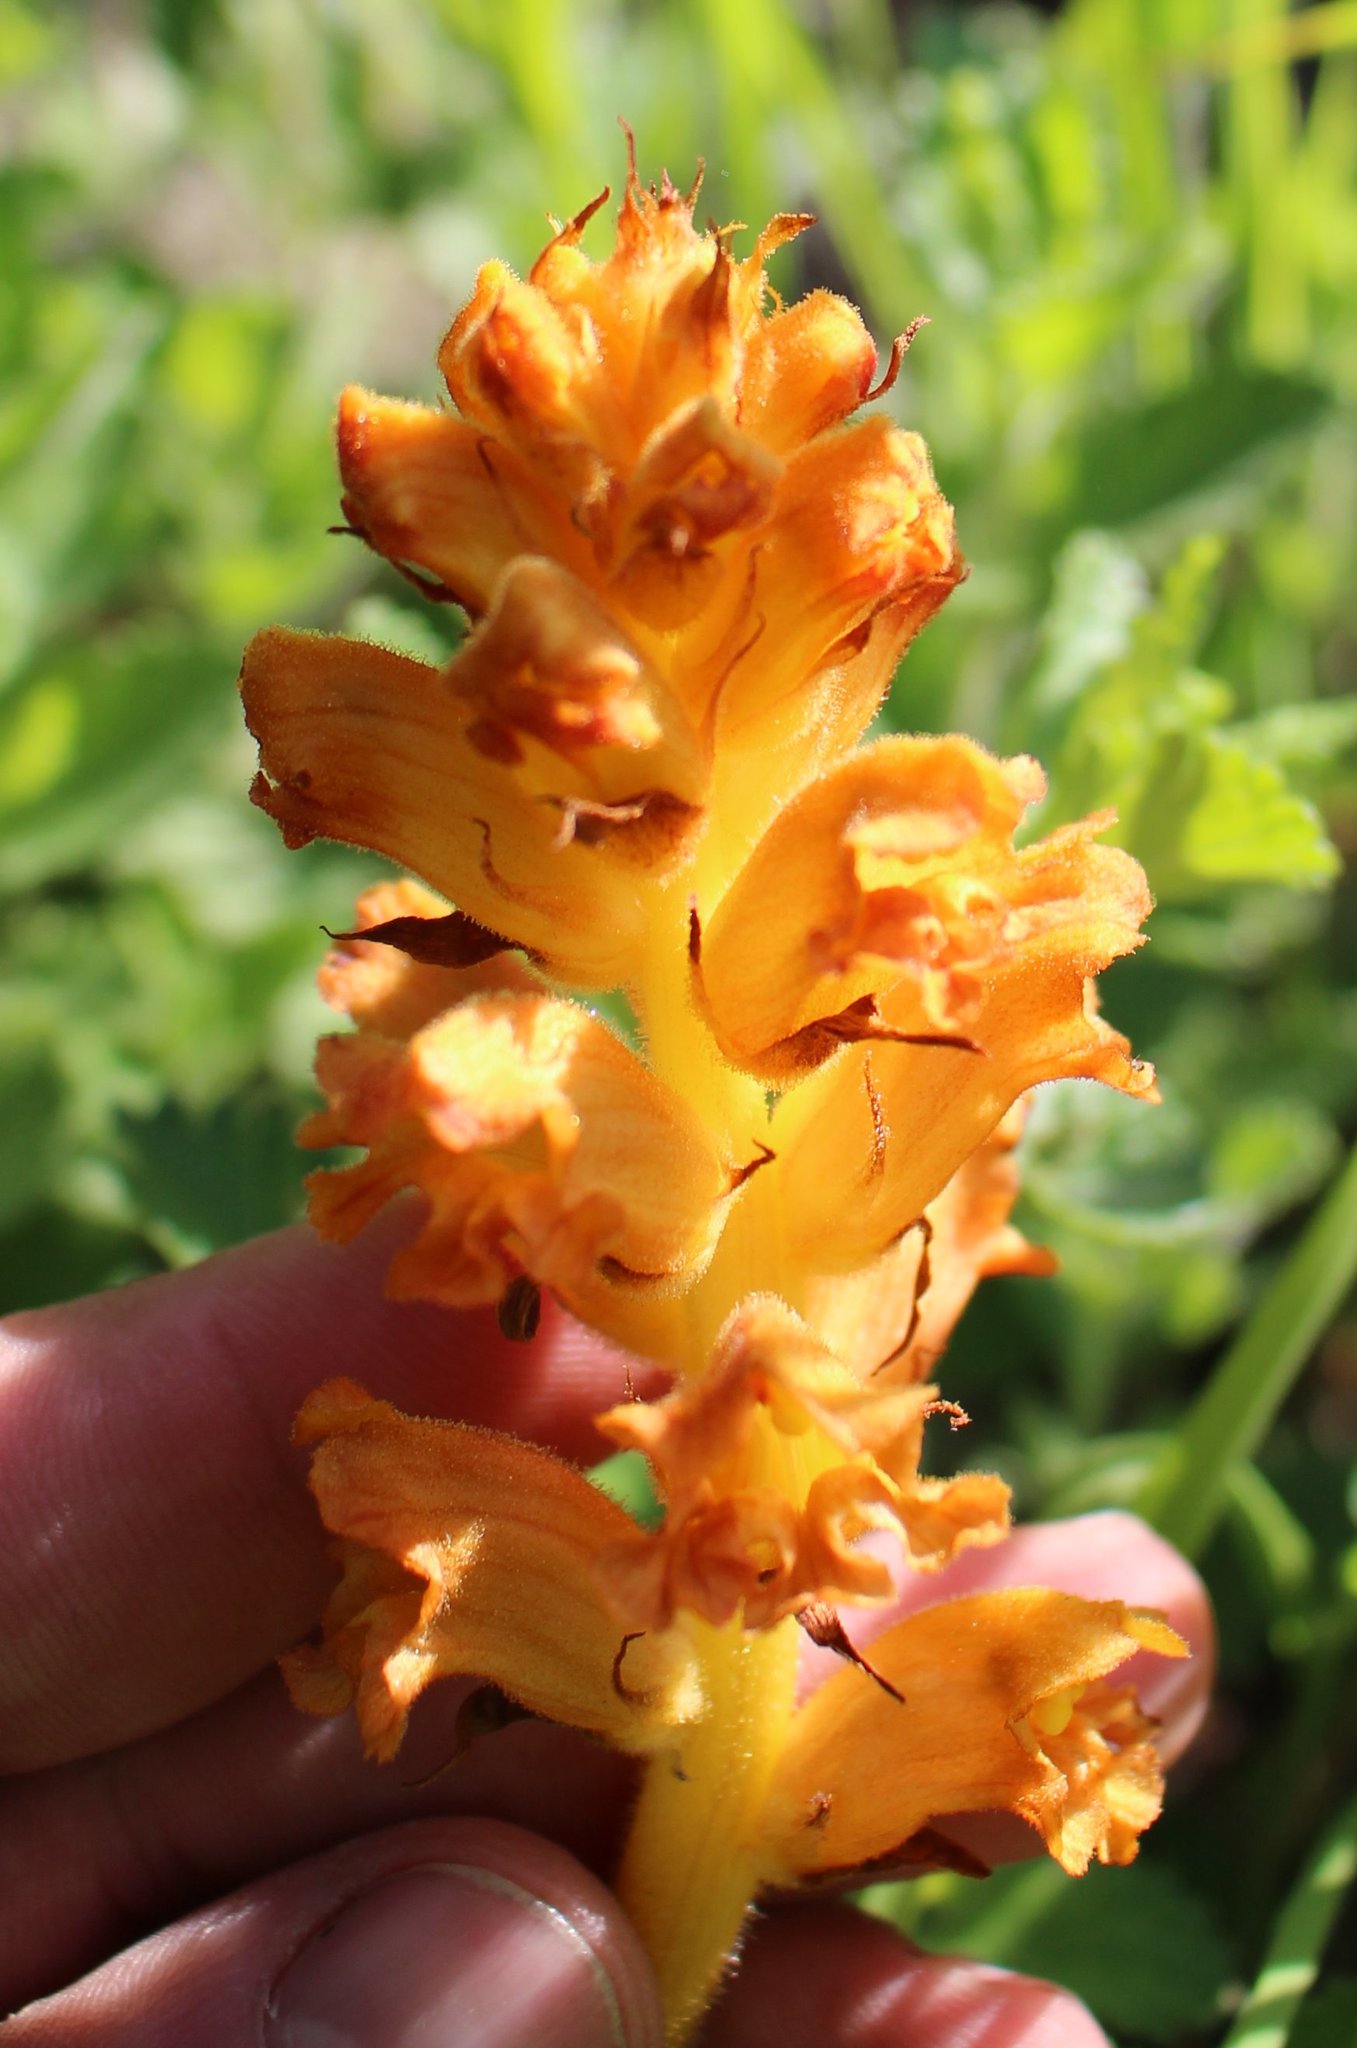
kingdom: Plantae
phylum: Tracheophyta
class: Magnoliopsida
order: Lamiales
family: Orobanchaceae
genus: Orobanche
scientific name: Orobanche alba
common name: Thyme broomrape
